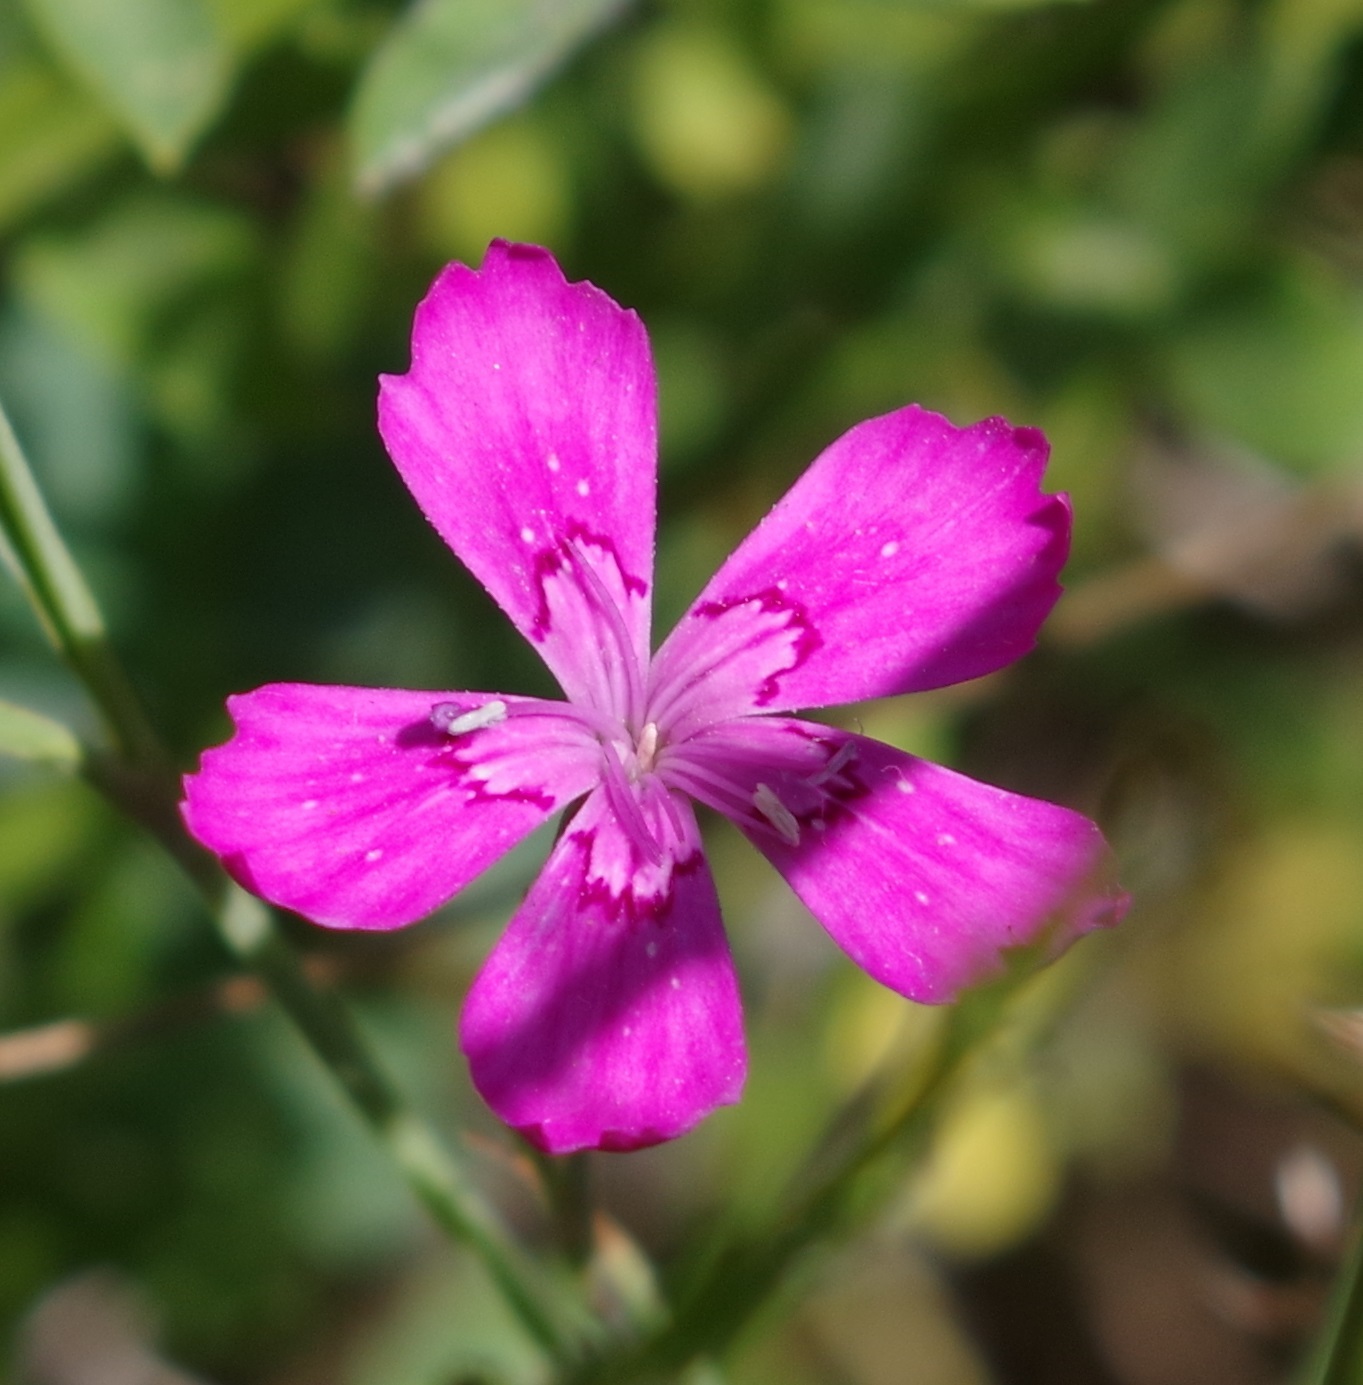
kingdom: Plantae
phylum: Tracheophyta
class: Magnoliopsida
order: Caryophyllales
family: Caryophyllaceae
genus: Dianthus
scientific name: Dianthus deltoides
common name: Maiden pink
